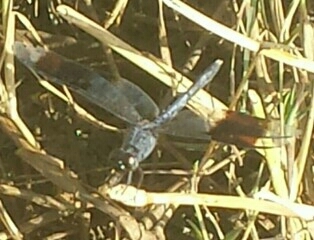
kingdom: Animalia
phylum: Arthropoda
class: Insecta
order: Odonata
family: Libellulidae
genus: Erythrodiplax
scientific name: Erythrodiplax umbrata
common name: Band-winged dragonlet
